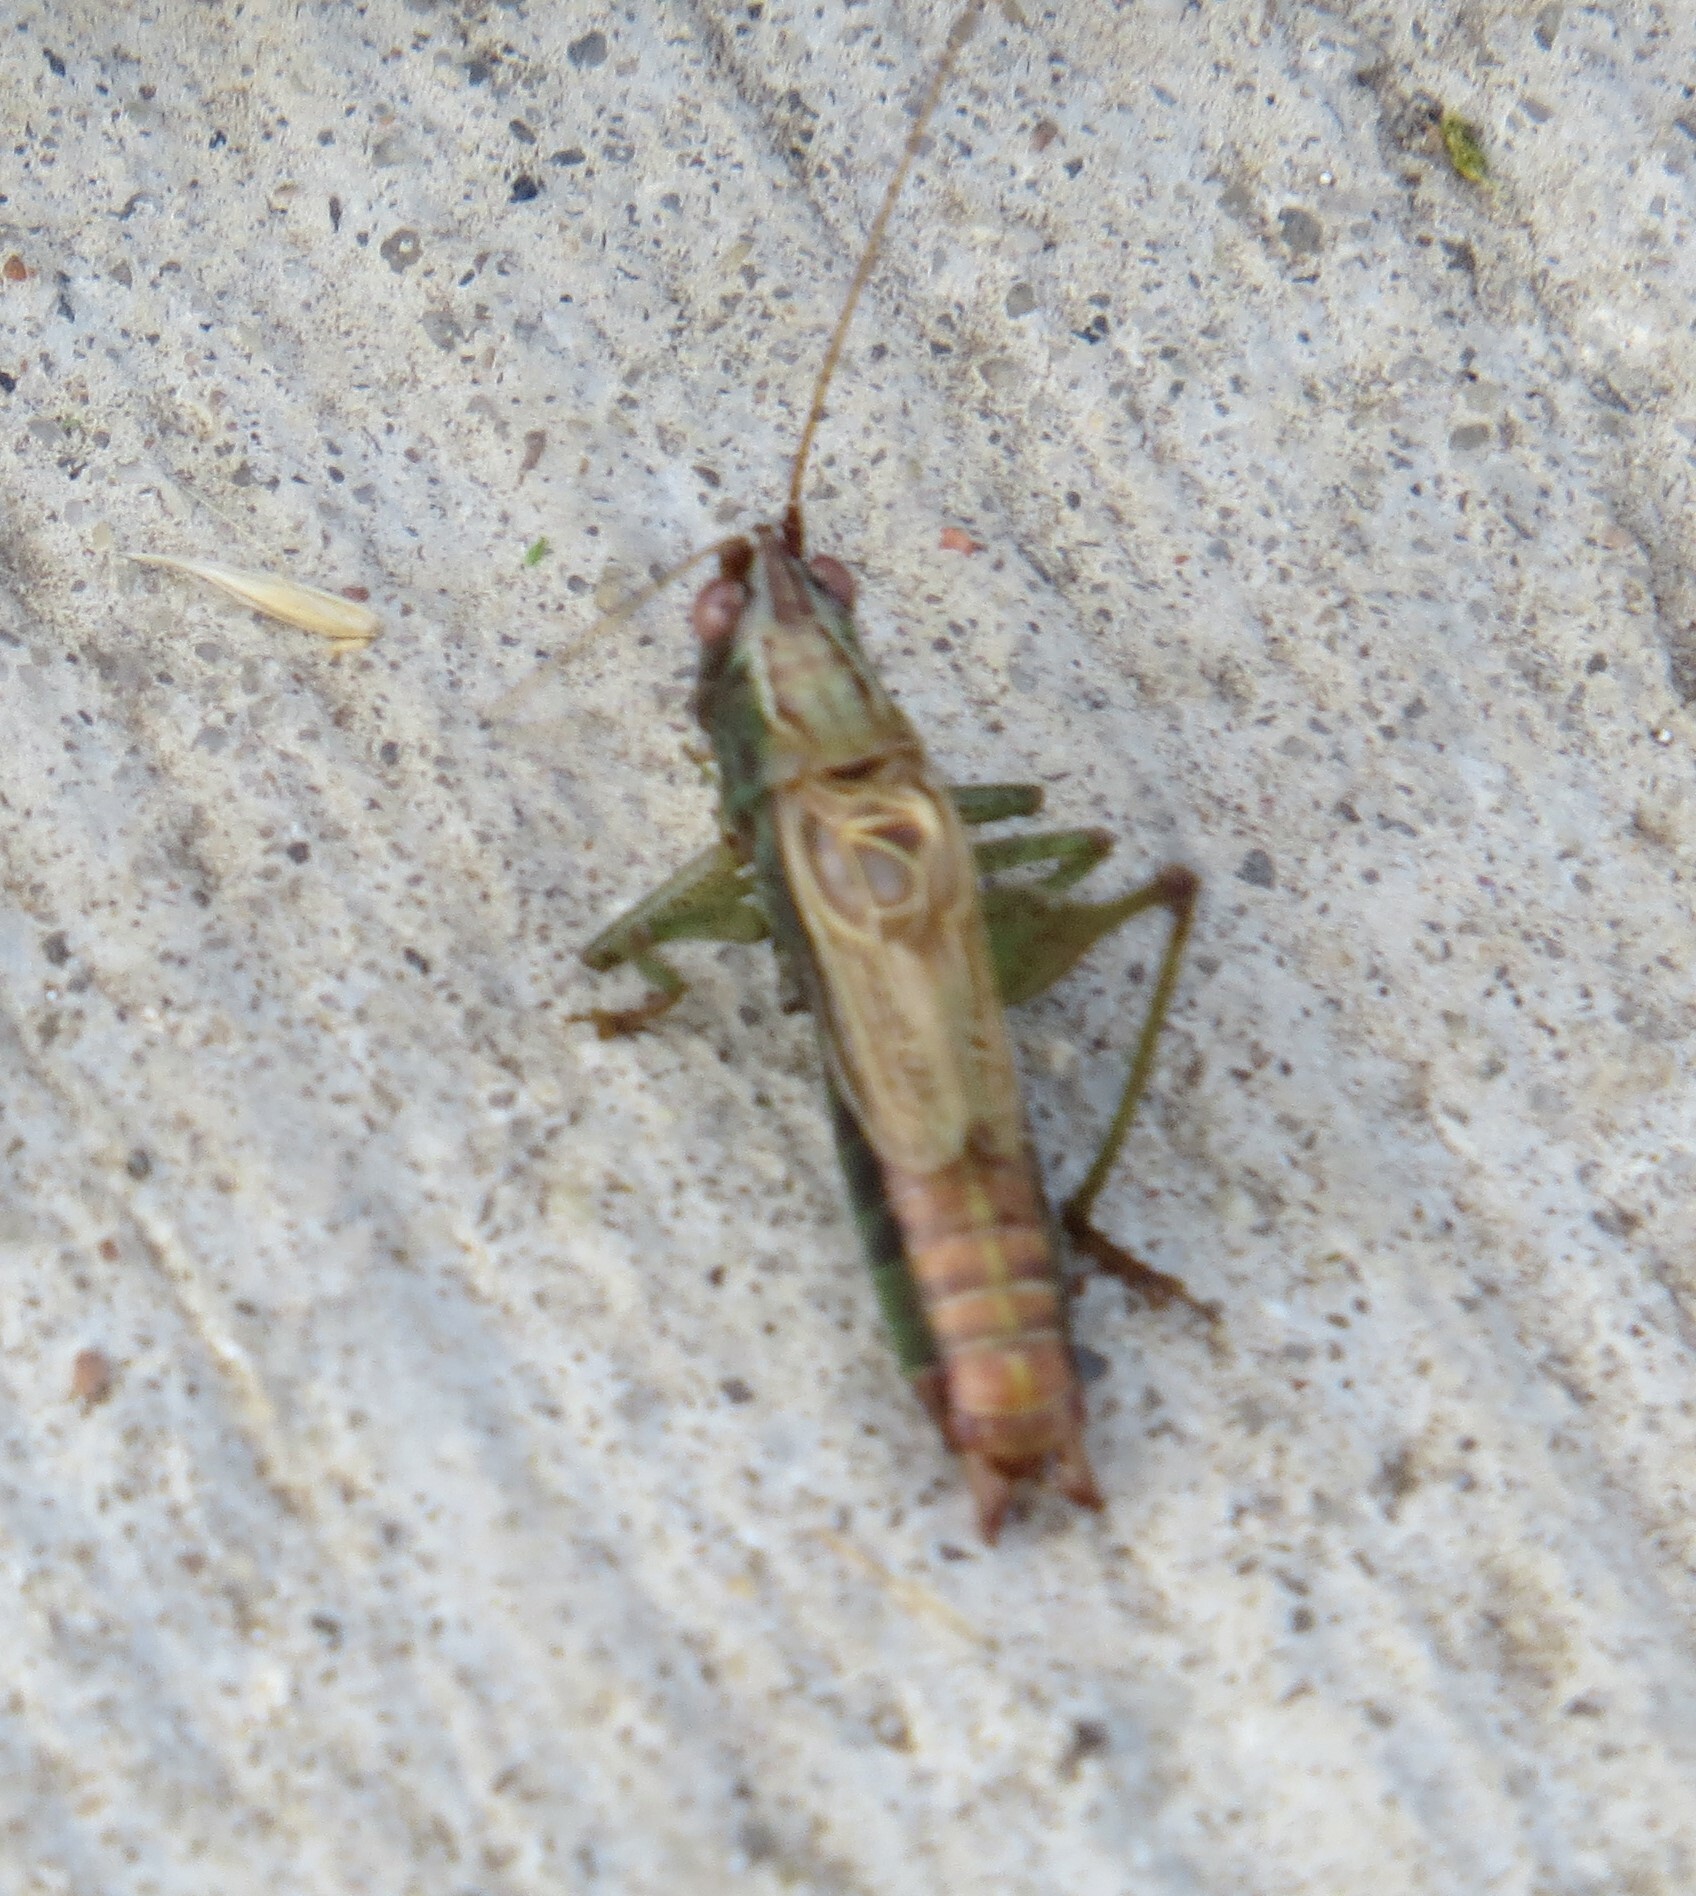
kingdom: Animalia
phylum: Arthropoda
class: Insecta
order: Orthoptera
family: Tettigoniidae
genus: Conocephalus
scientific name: Conocephalus nemoralis
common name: Woodland meadow katydid
